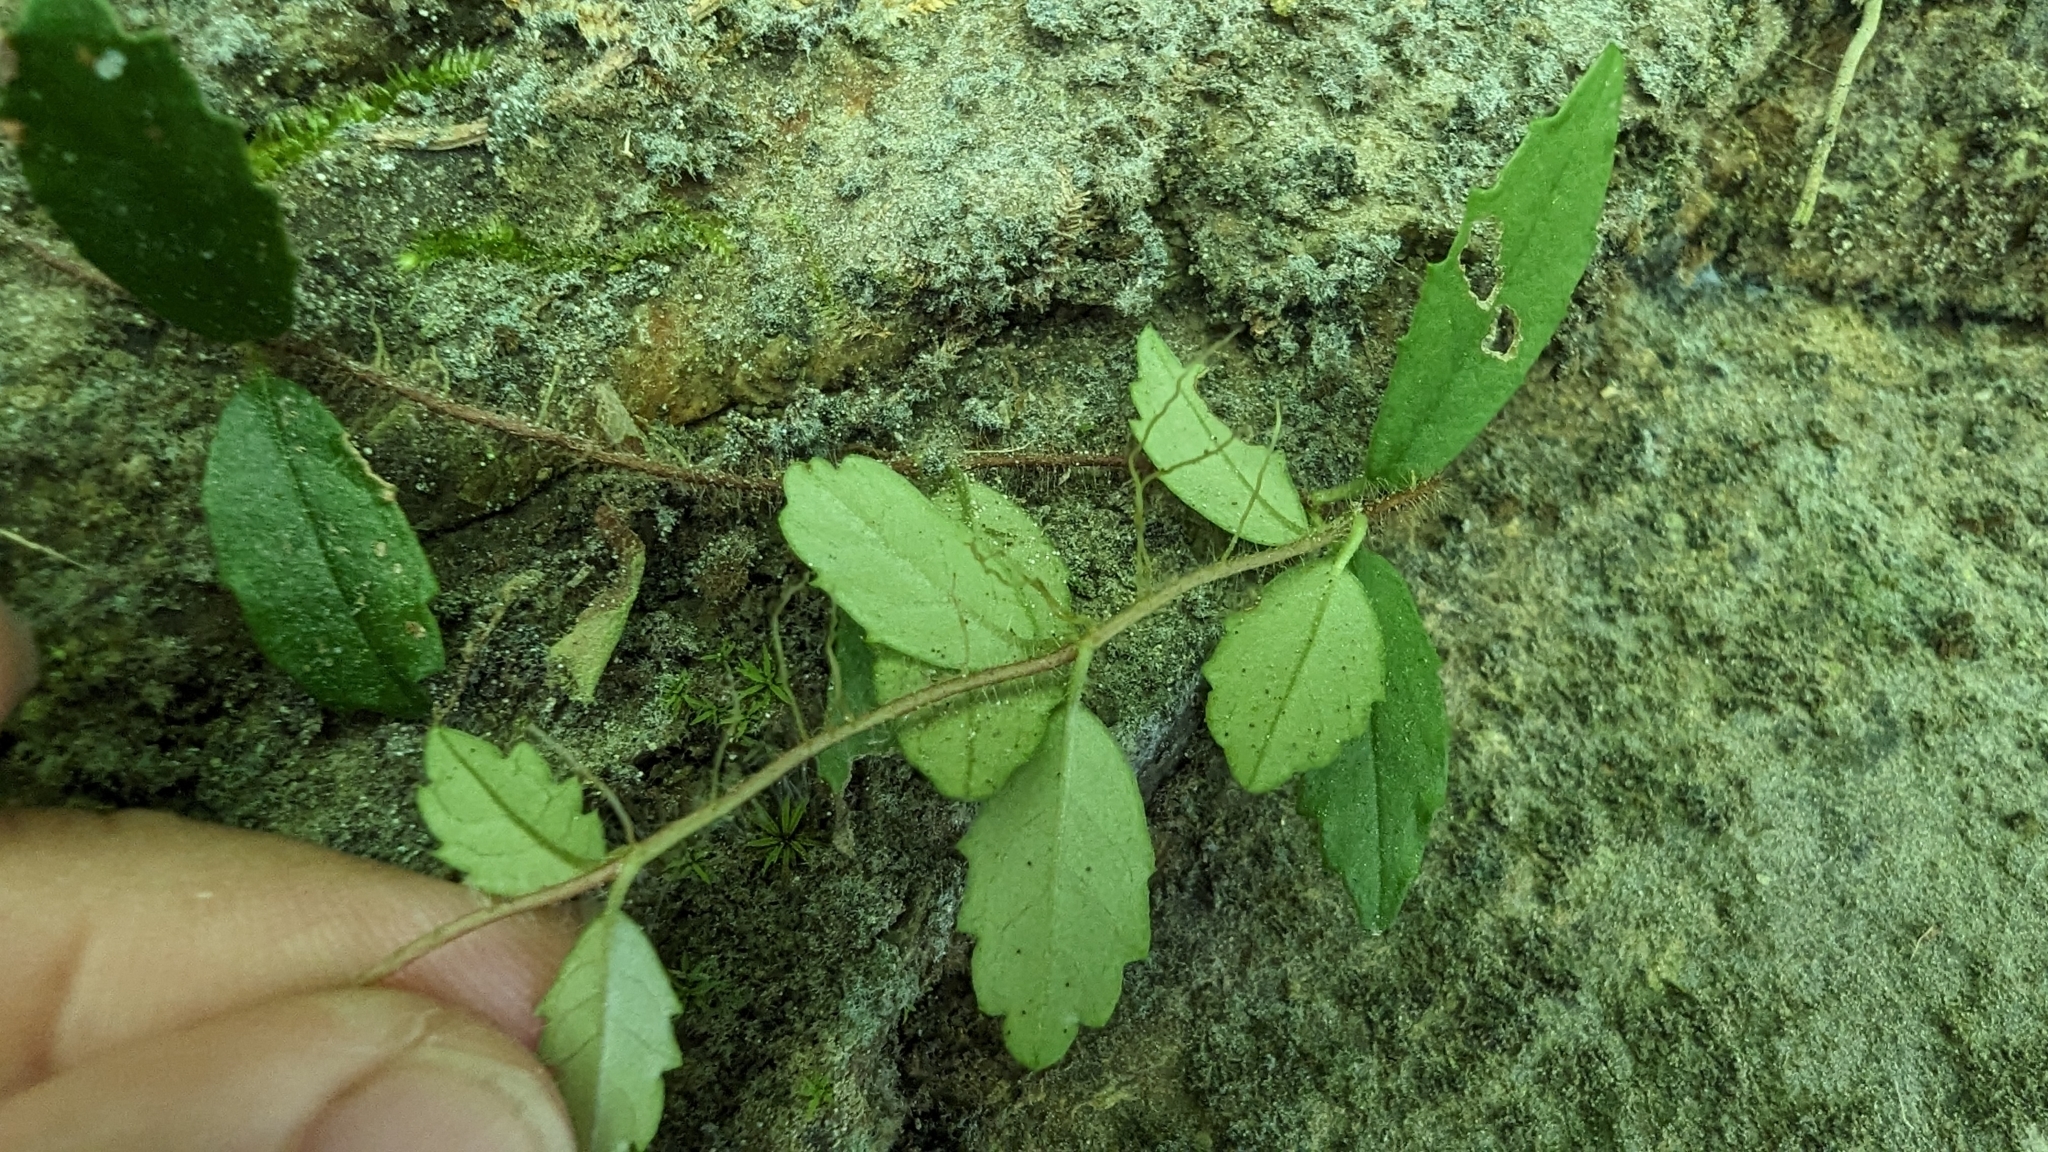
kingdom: Plantae
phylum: Tracheophyta
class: Magnoliopsida
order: Cornales
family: Hydrangeaceae
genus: Hydrangea
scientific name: Hydrangea viburnoides
